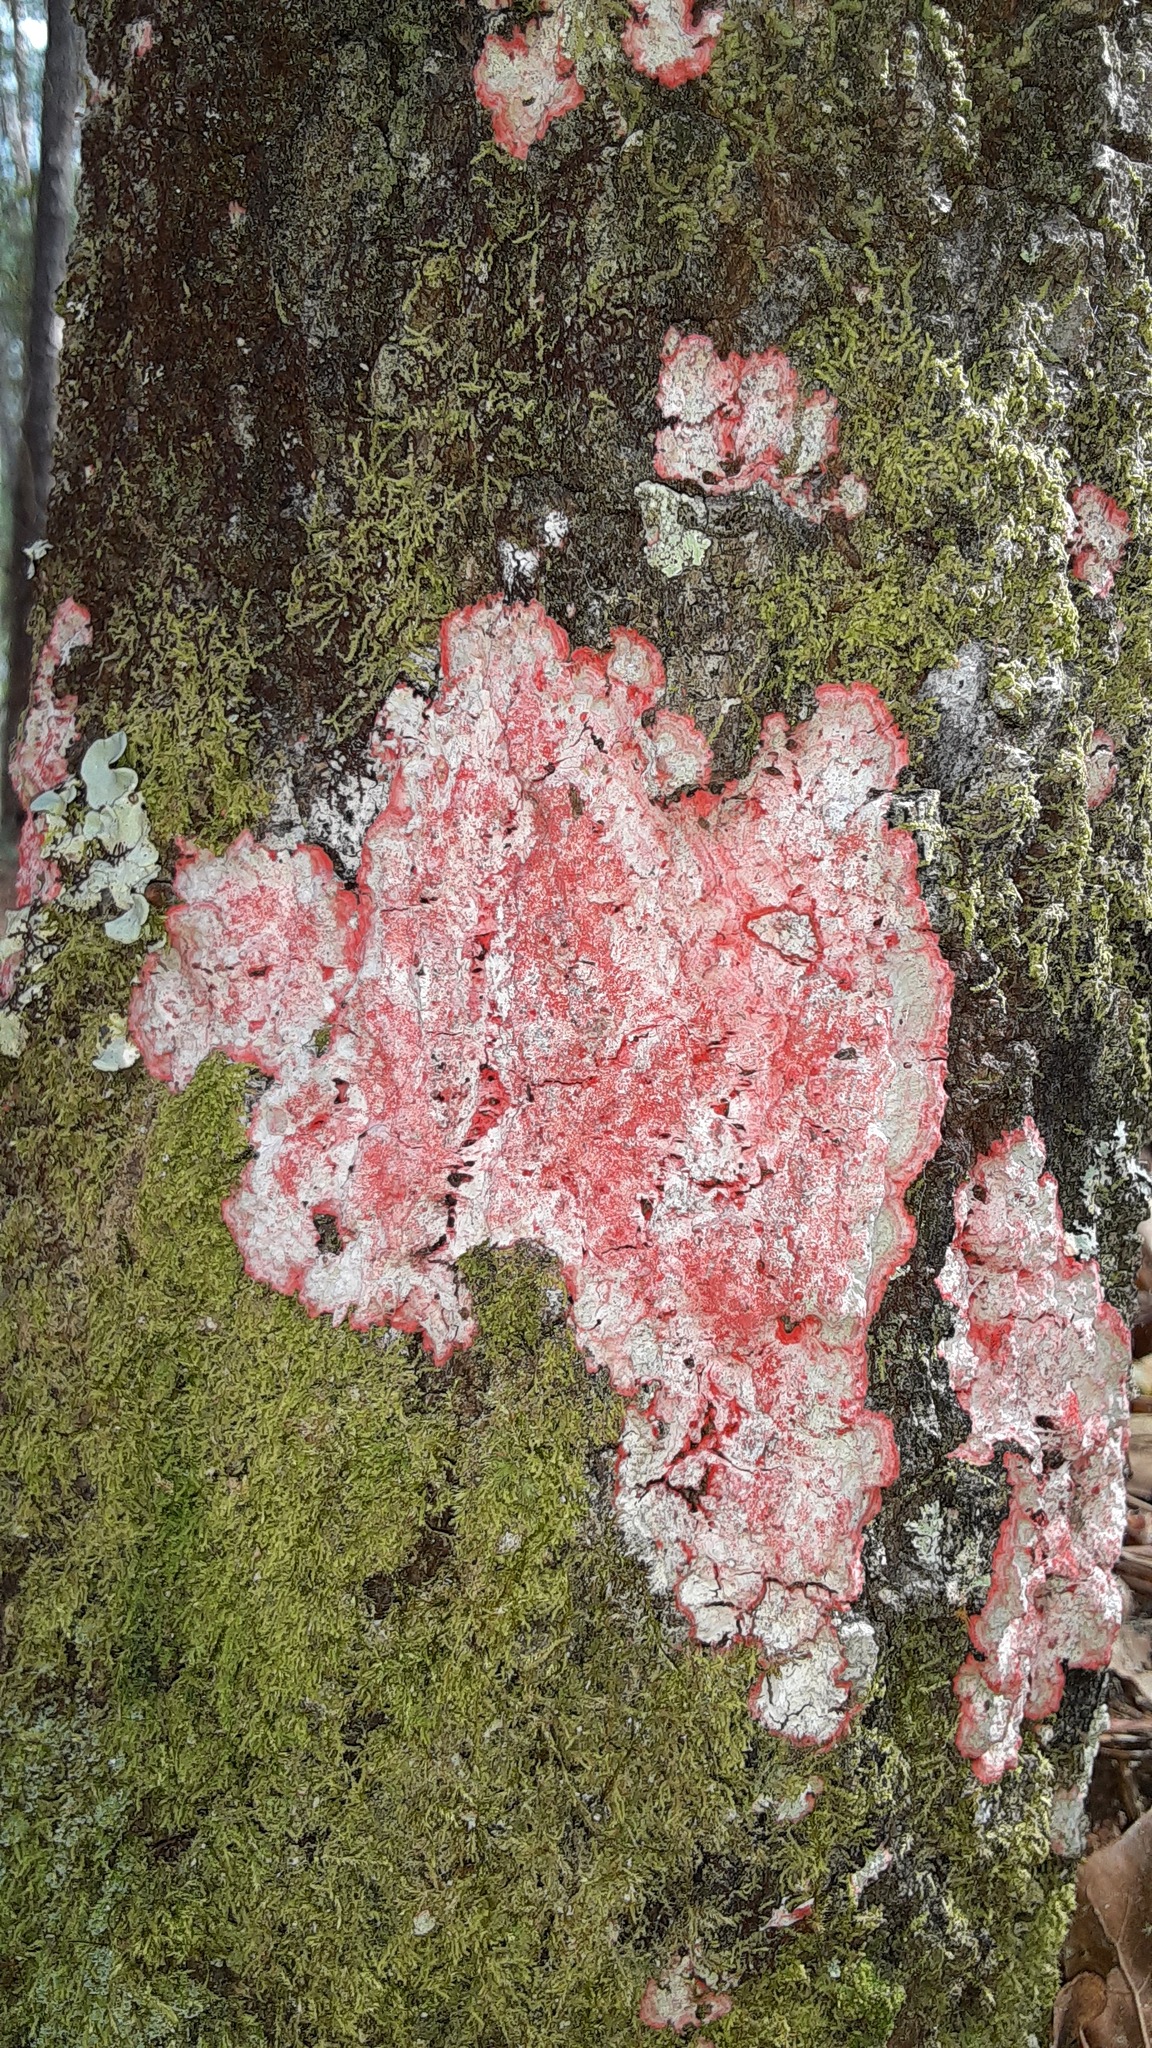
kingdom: Fungi
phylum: Ascomycota
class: Arthoniomycetes
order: Arthoniales
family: Arthoniaceae
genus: Herpothallon
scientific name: Herpothallon rubrocinctum
